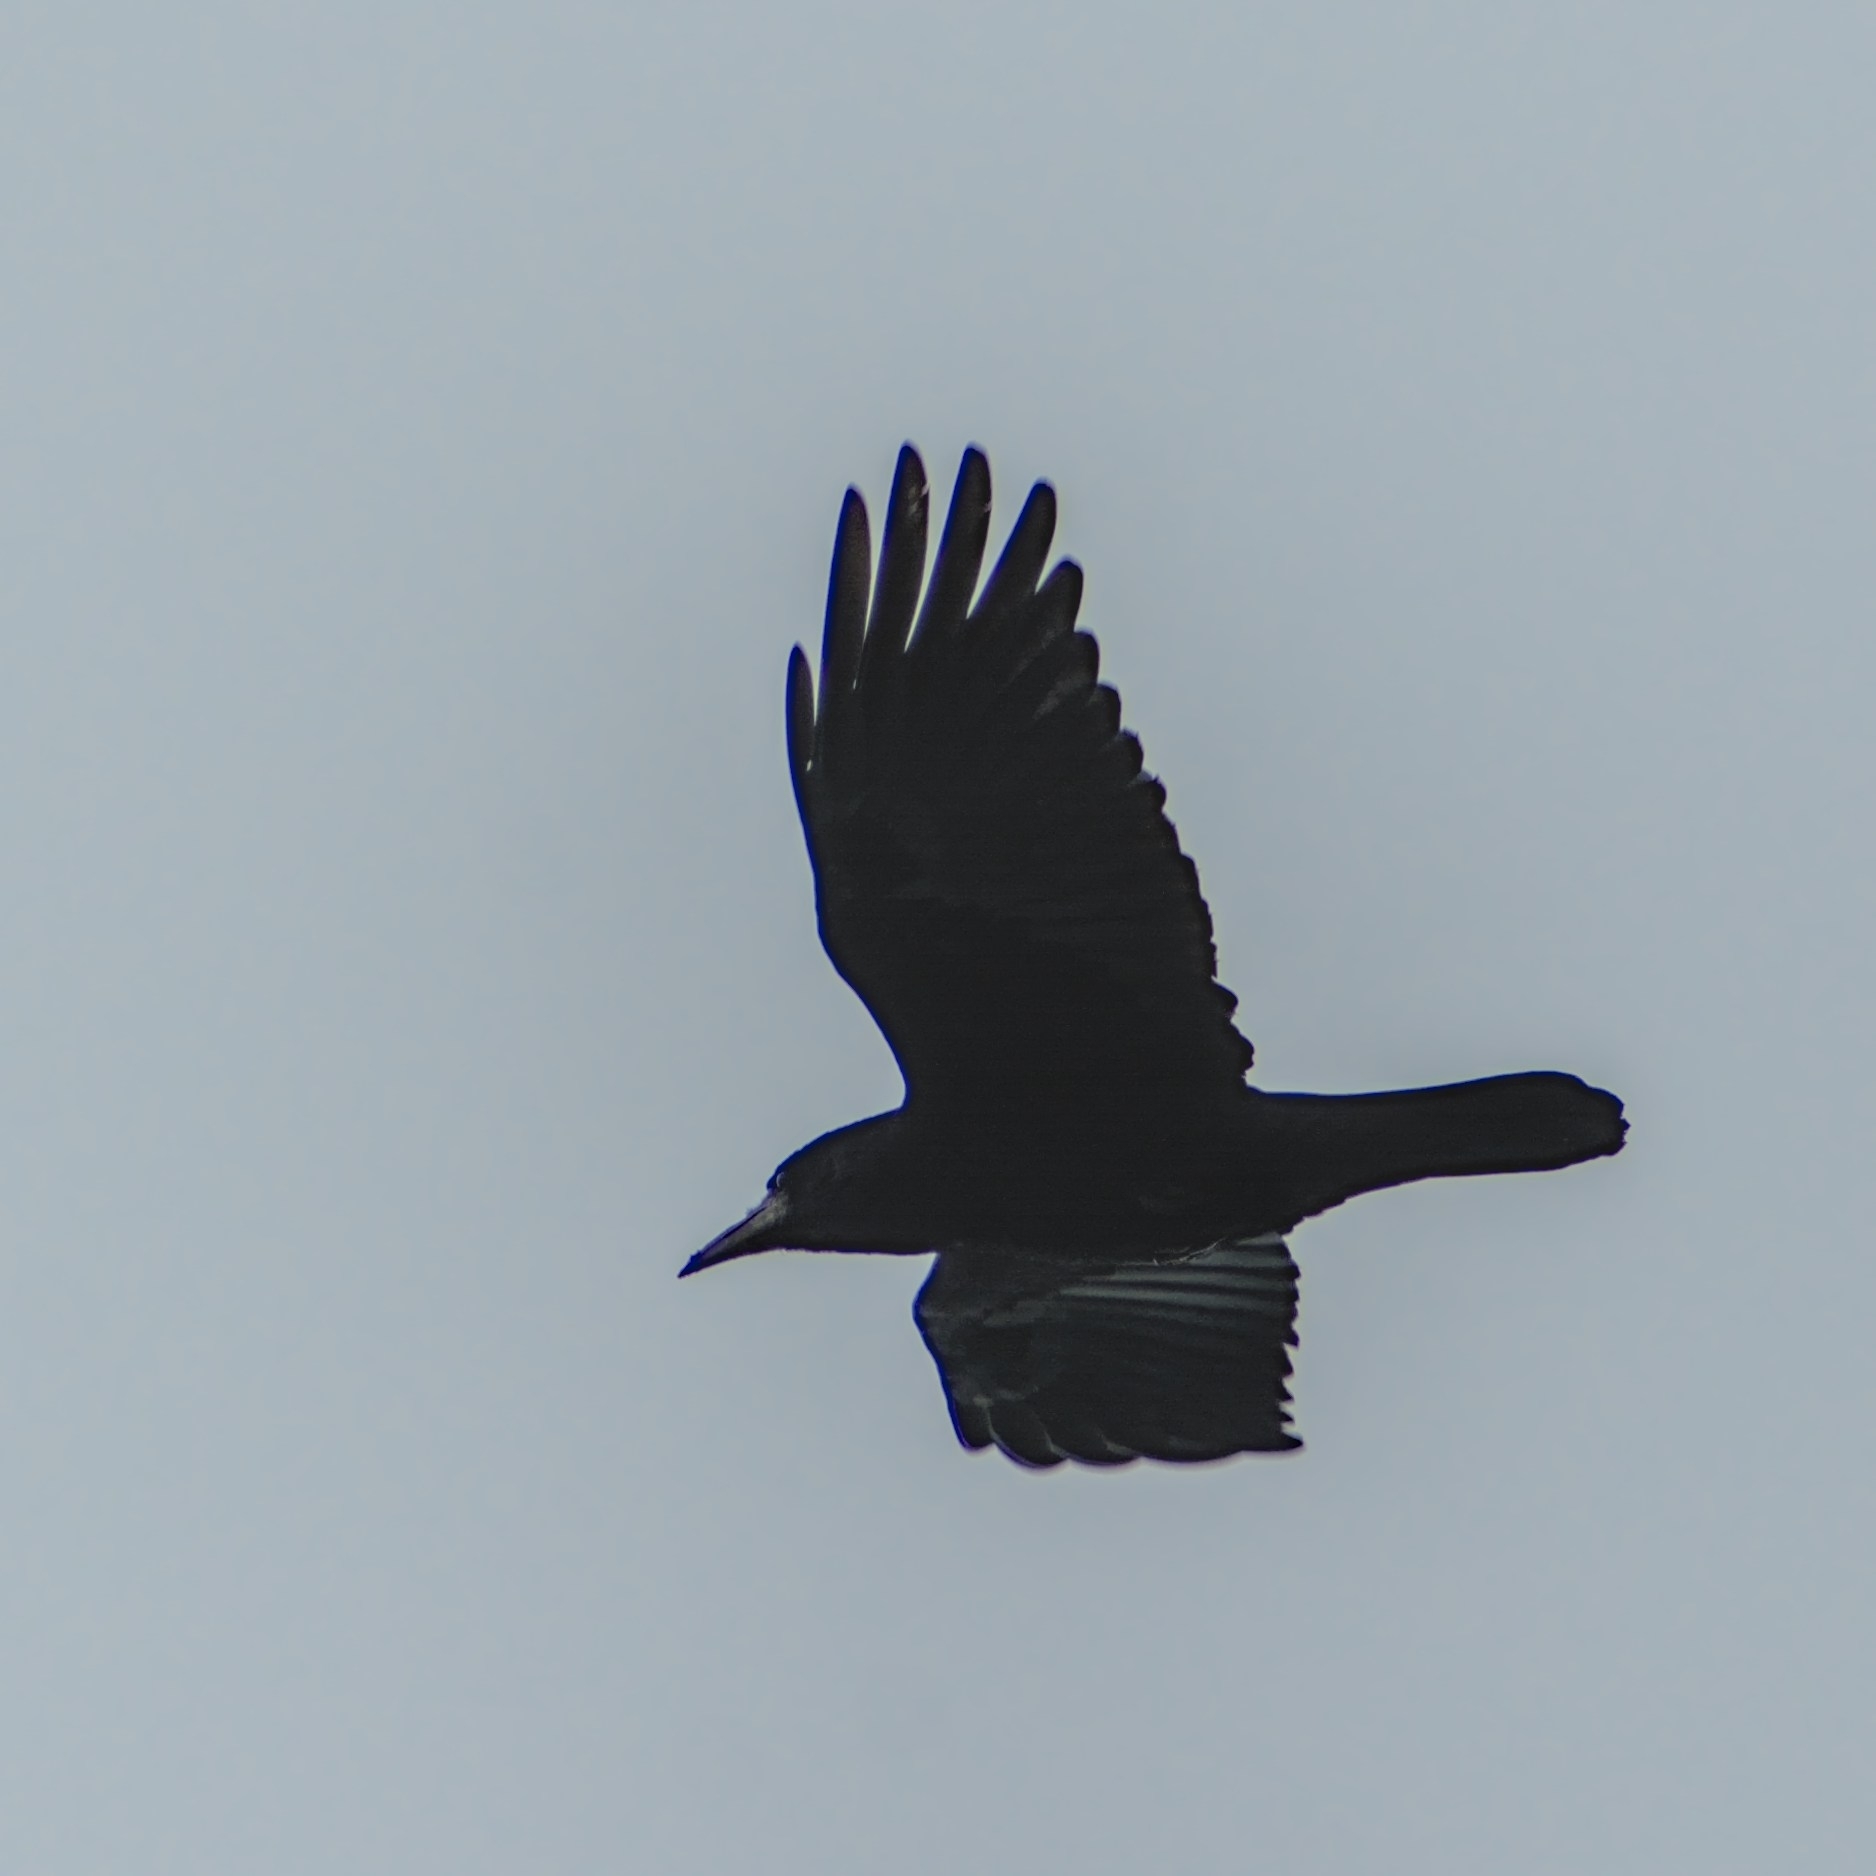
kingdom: Animalia
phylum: Chordata
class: Aves
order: Passeriformes
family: Corvidae
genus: Corvus
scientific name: Corvus frugilegus
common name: Rook
